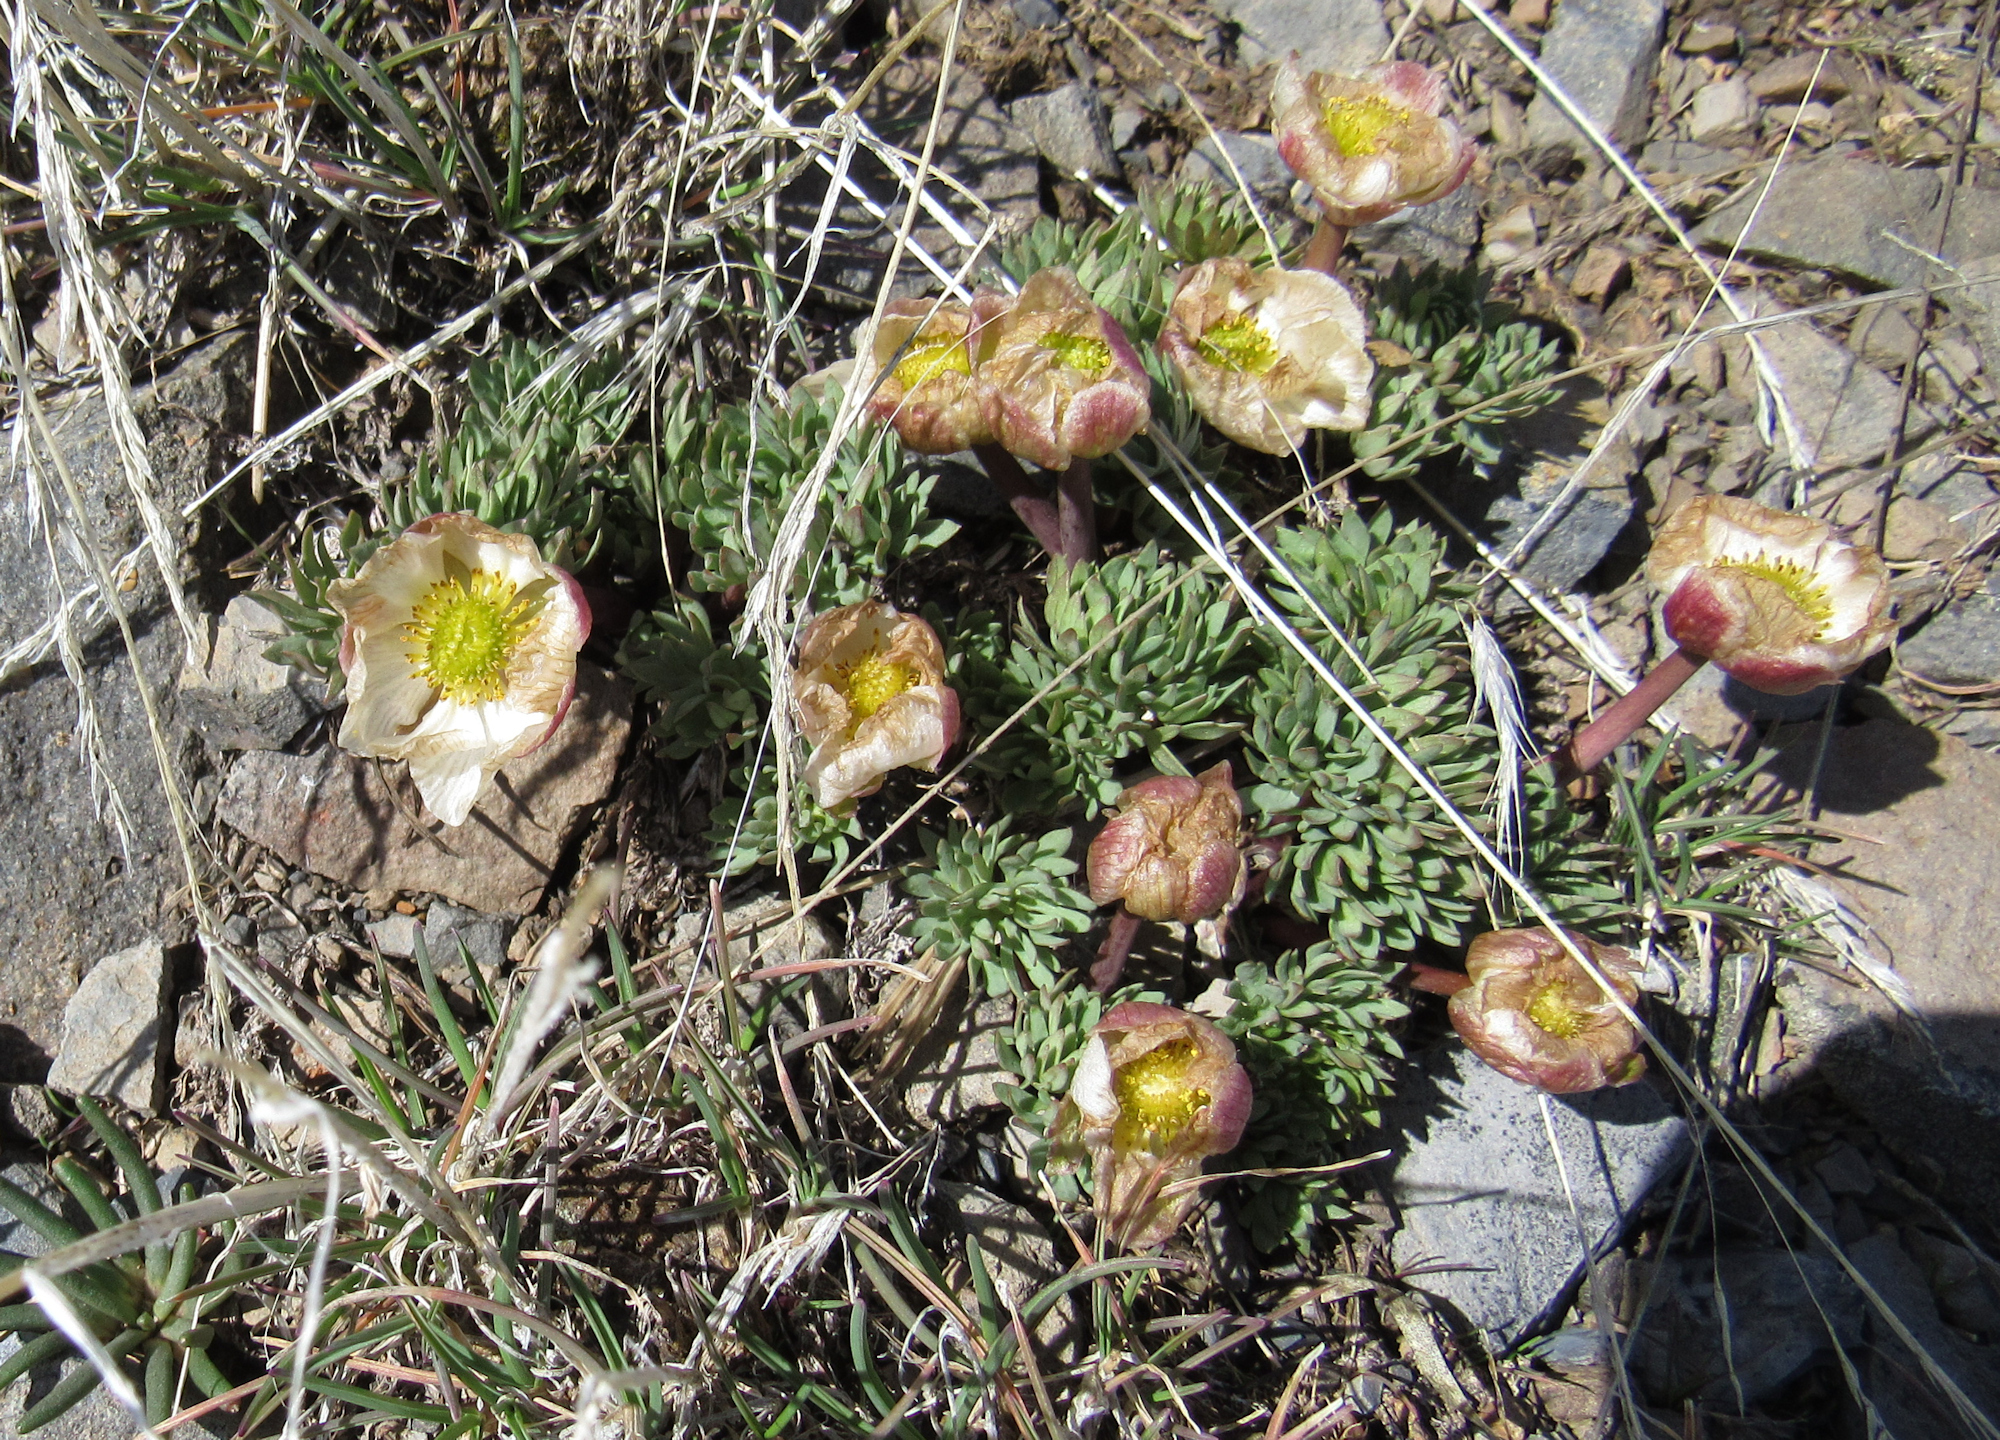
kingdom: Plantae
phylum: Tracheophyta
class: Magnoliopsida
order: Ranunculales
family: Ranunculaceae
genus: Beckwithia
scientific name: Beckwithia andersonii
